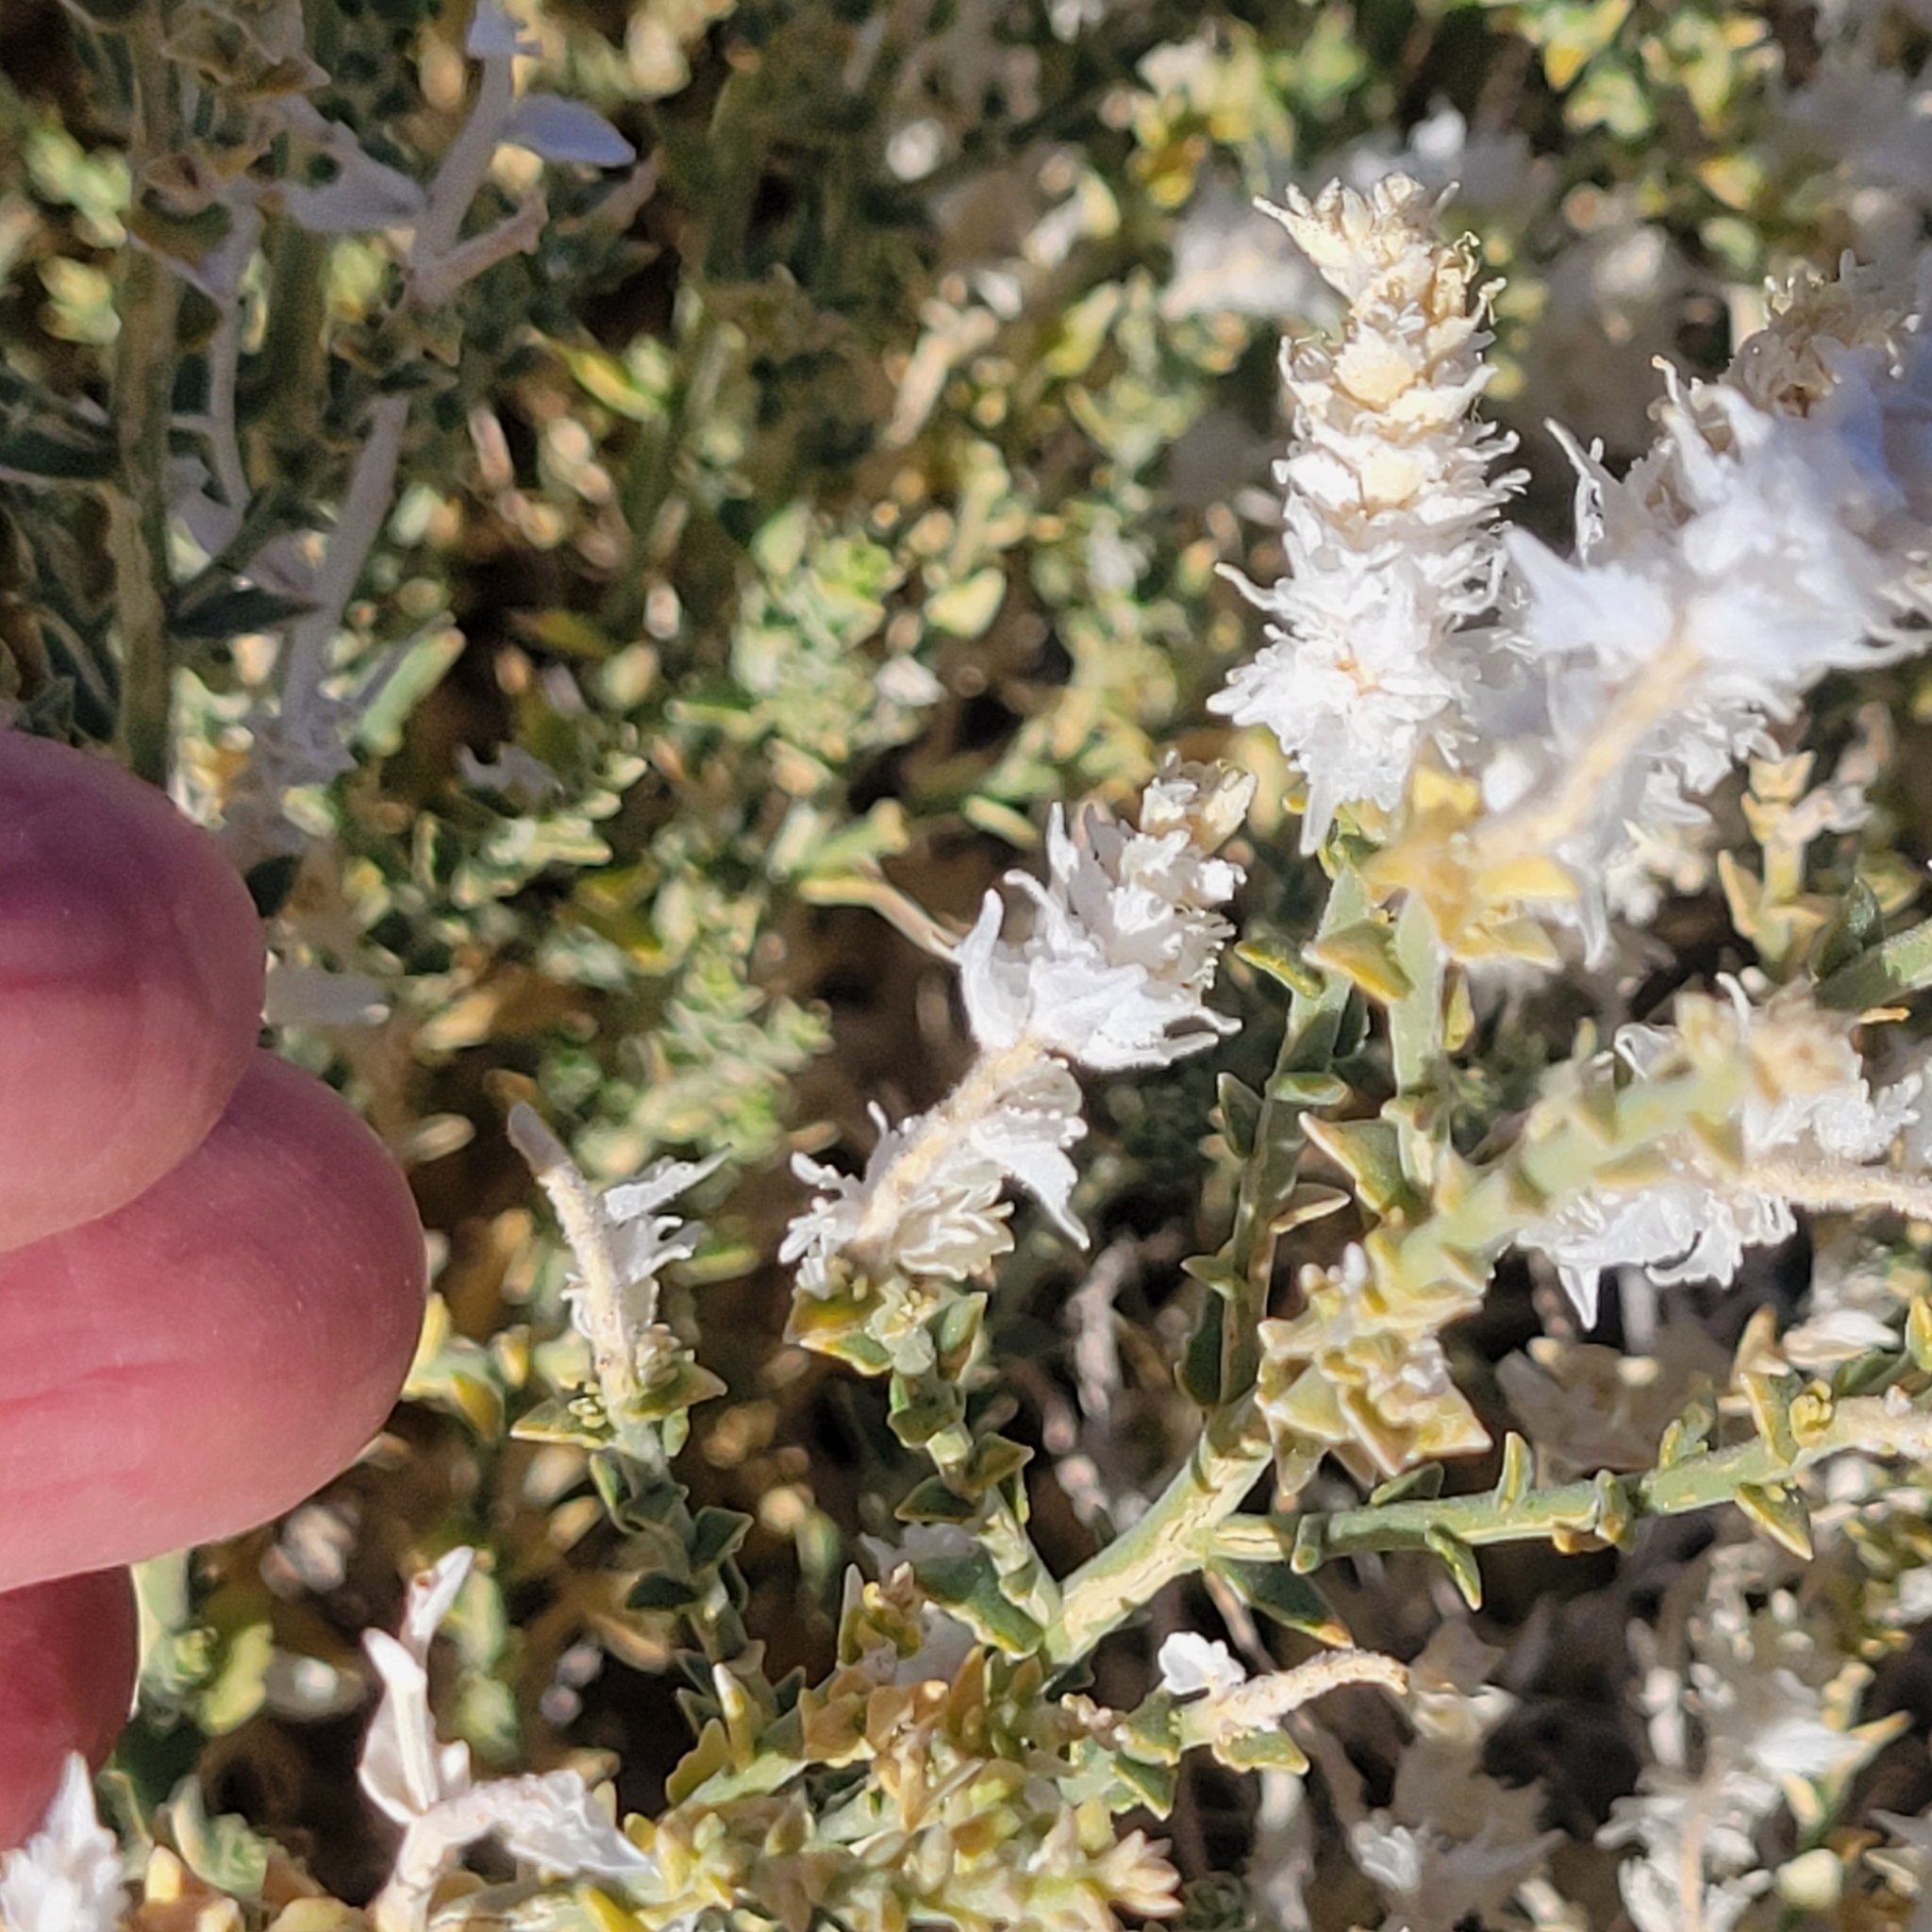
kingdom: Plantae
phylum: Tracheophyta
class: Magnoliopsida
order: Cornales
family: Loasaceae
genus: Petalonyx
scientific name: Petalonyx thurberi
